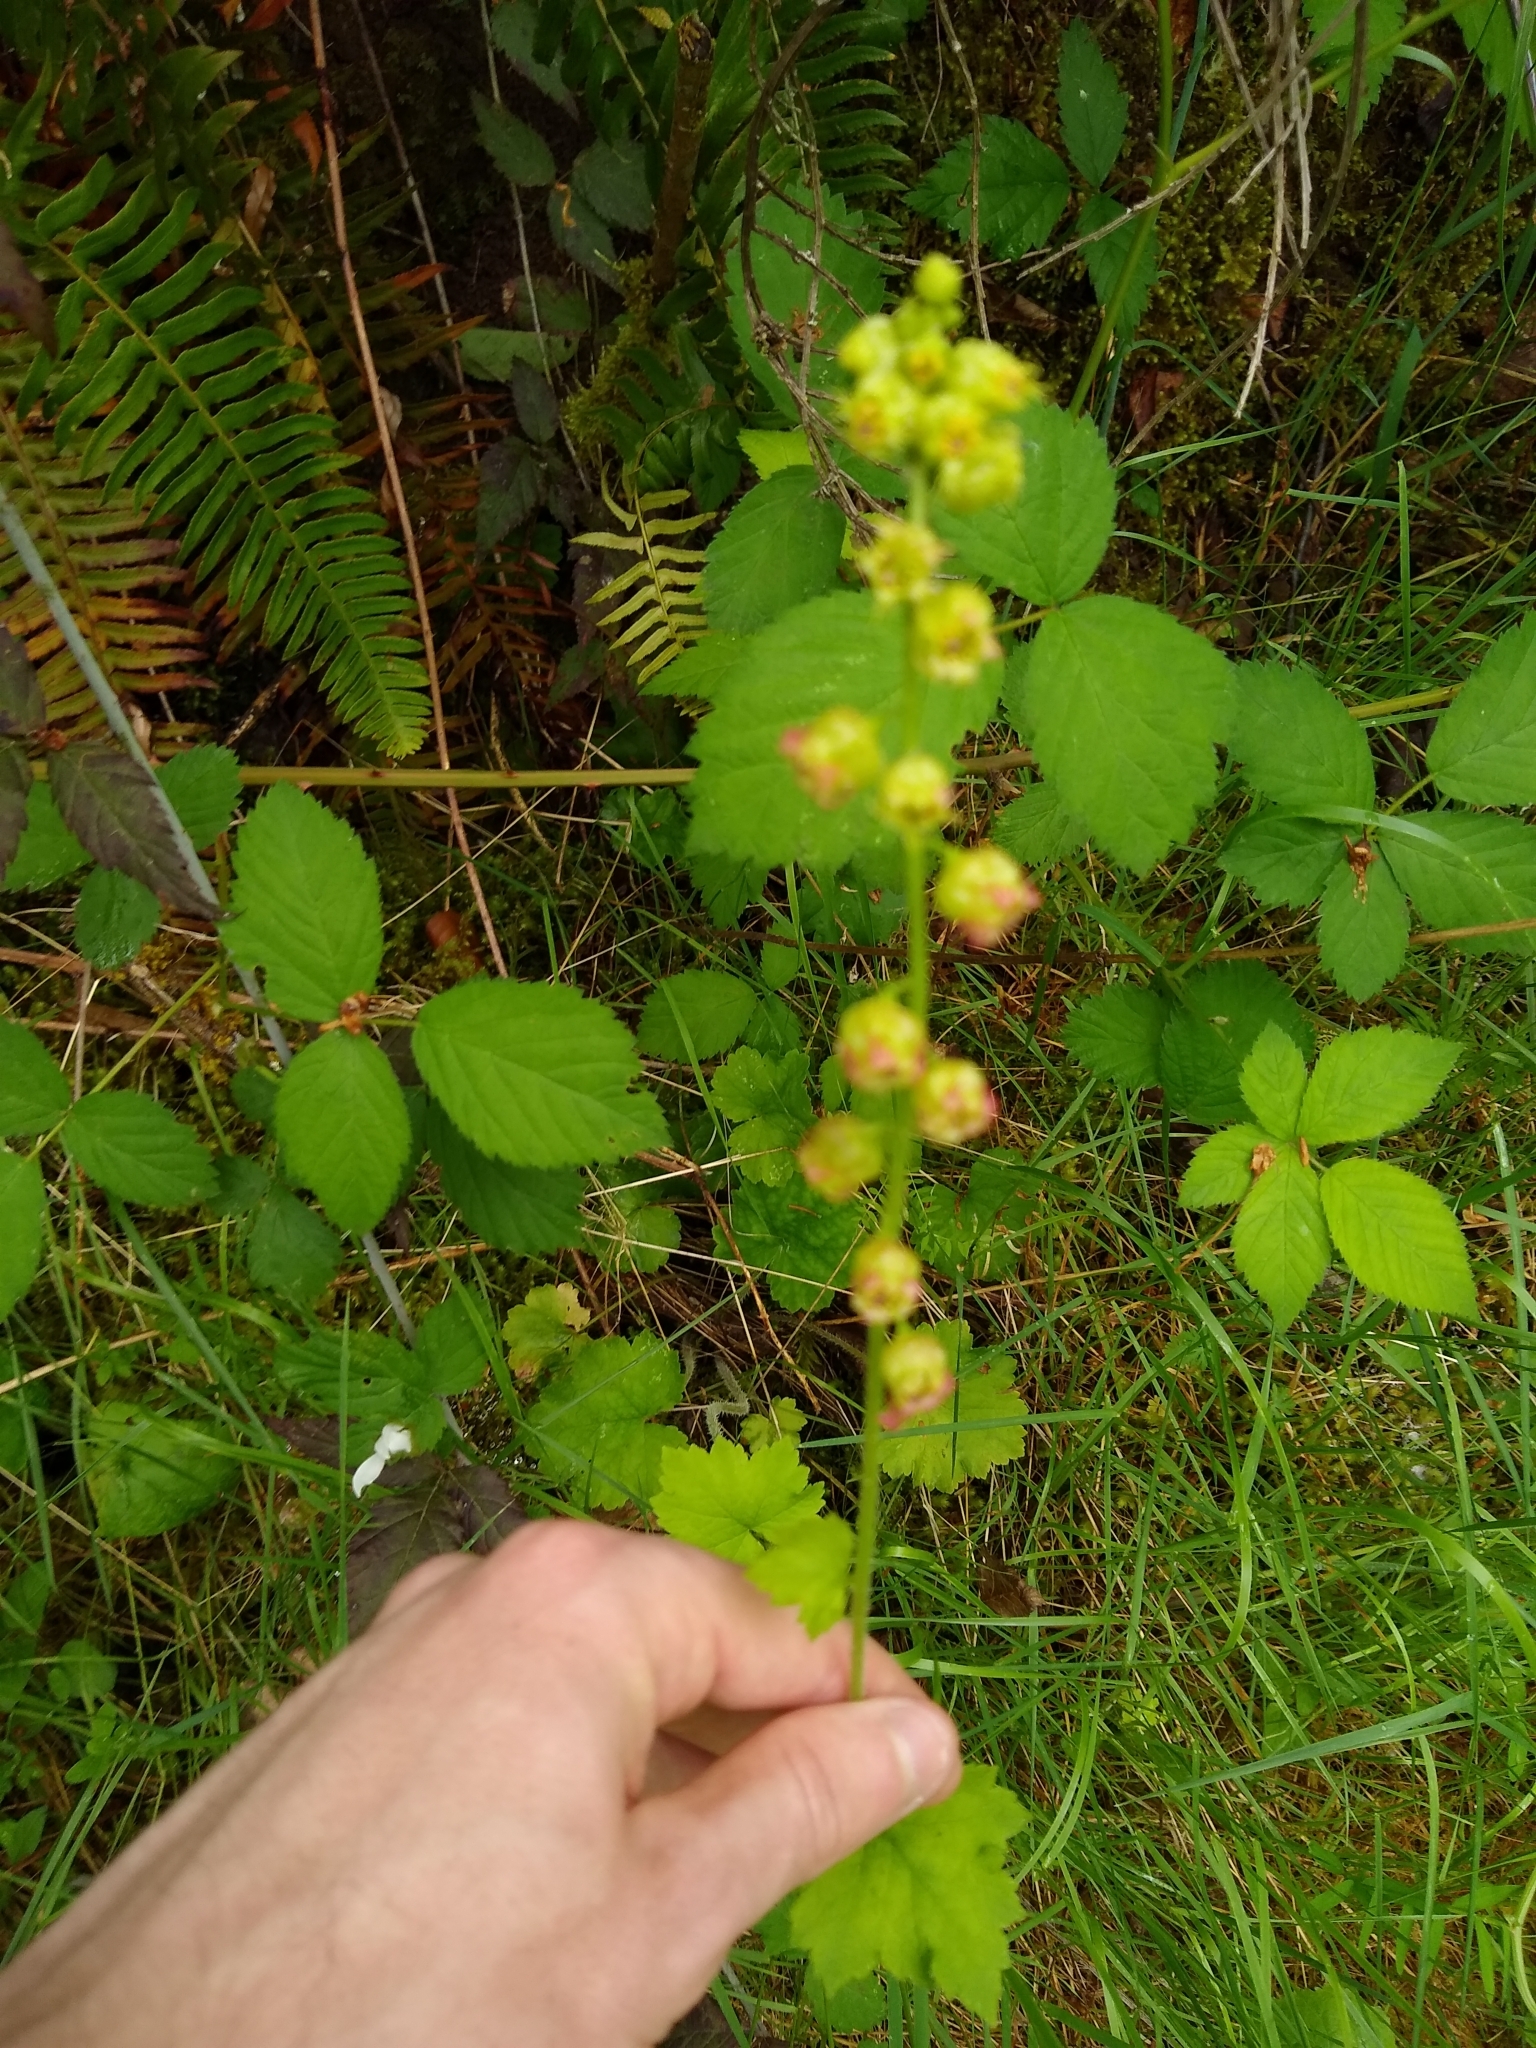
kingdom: Plantae
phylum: Tracheophyta
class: Magnoliopsida
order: Saxifragales
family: Saxifragaceae
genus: Tellima
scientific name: Tellima grandiflora
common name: Fringecups
